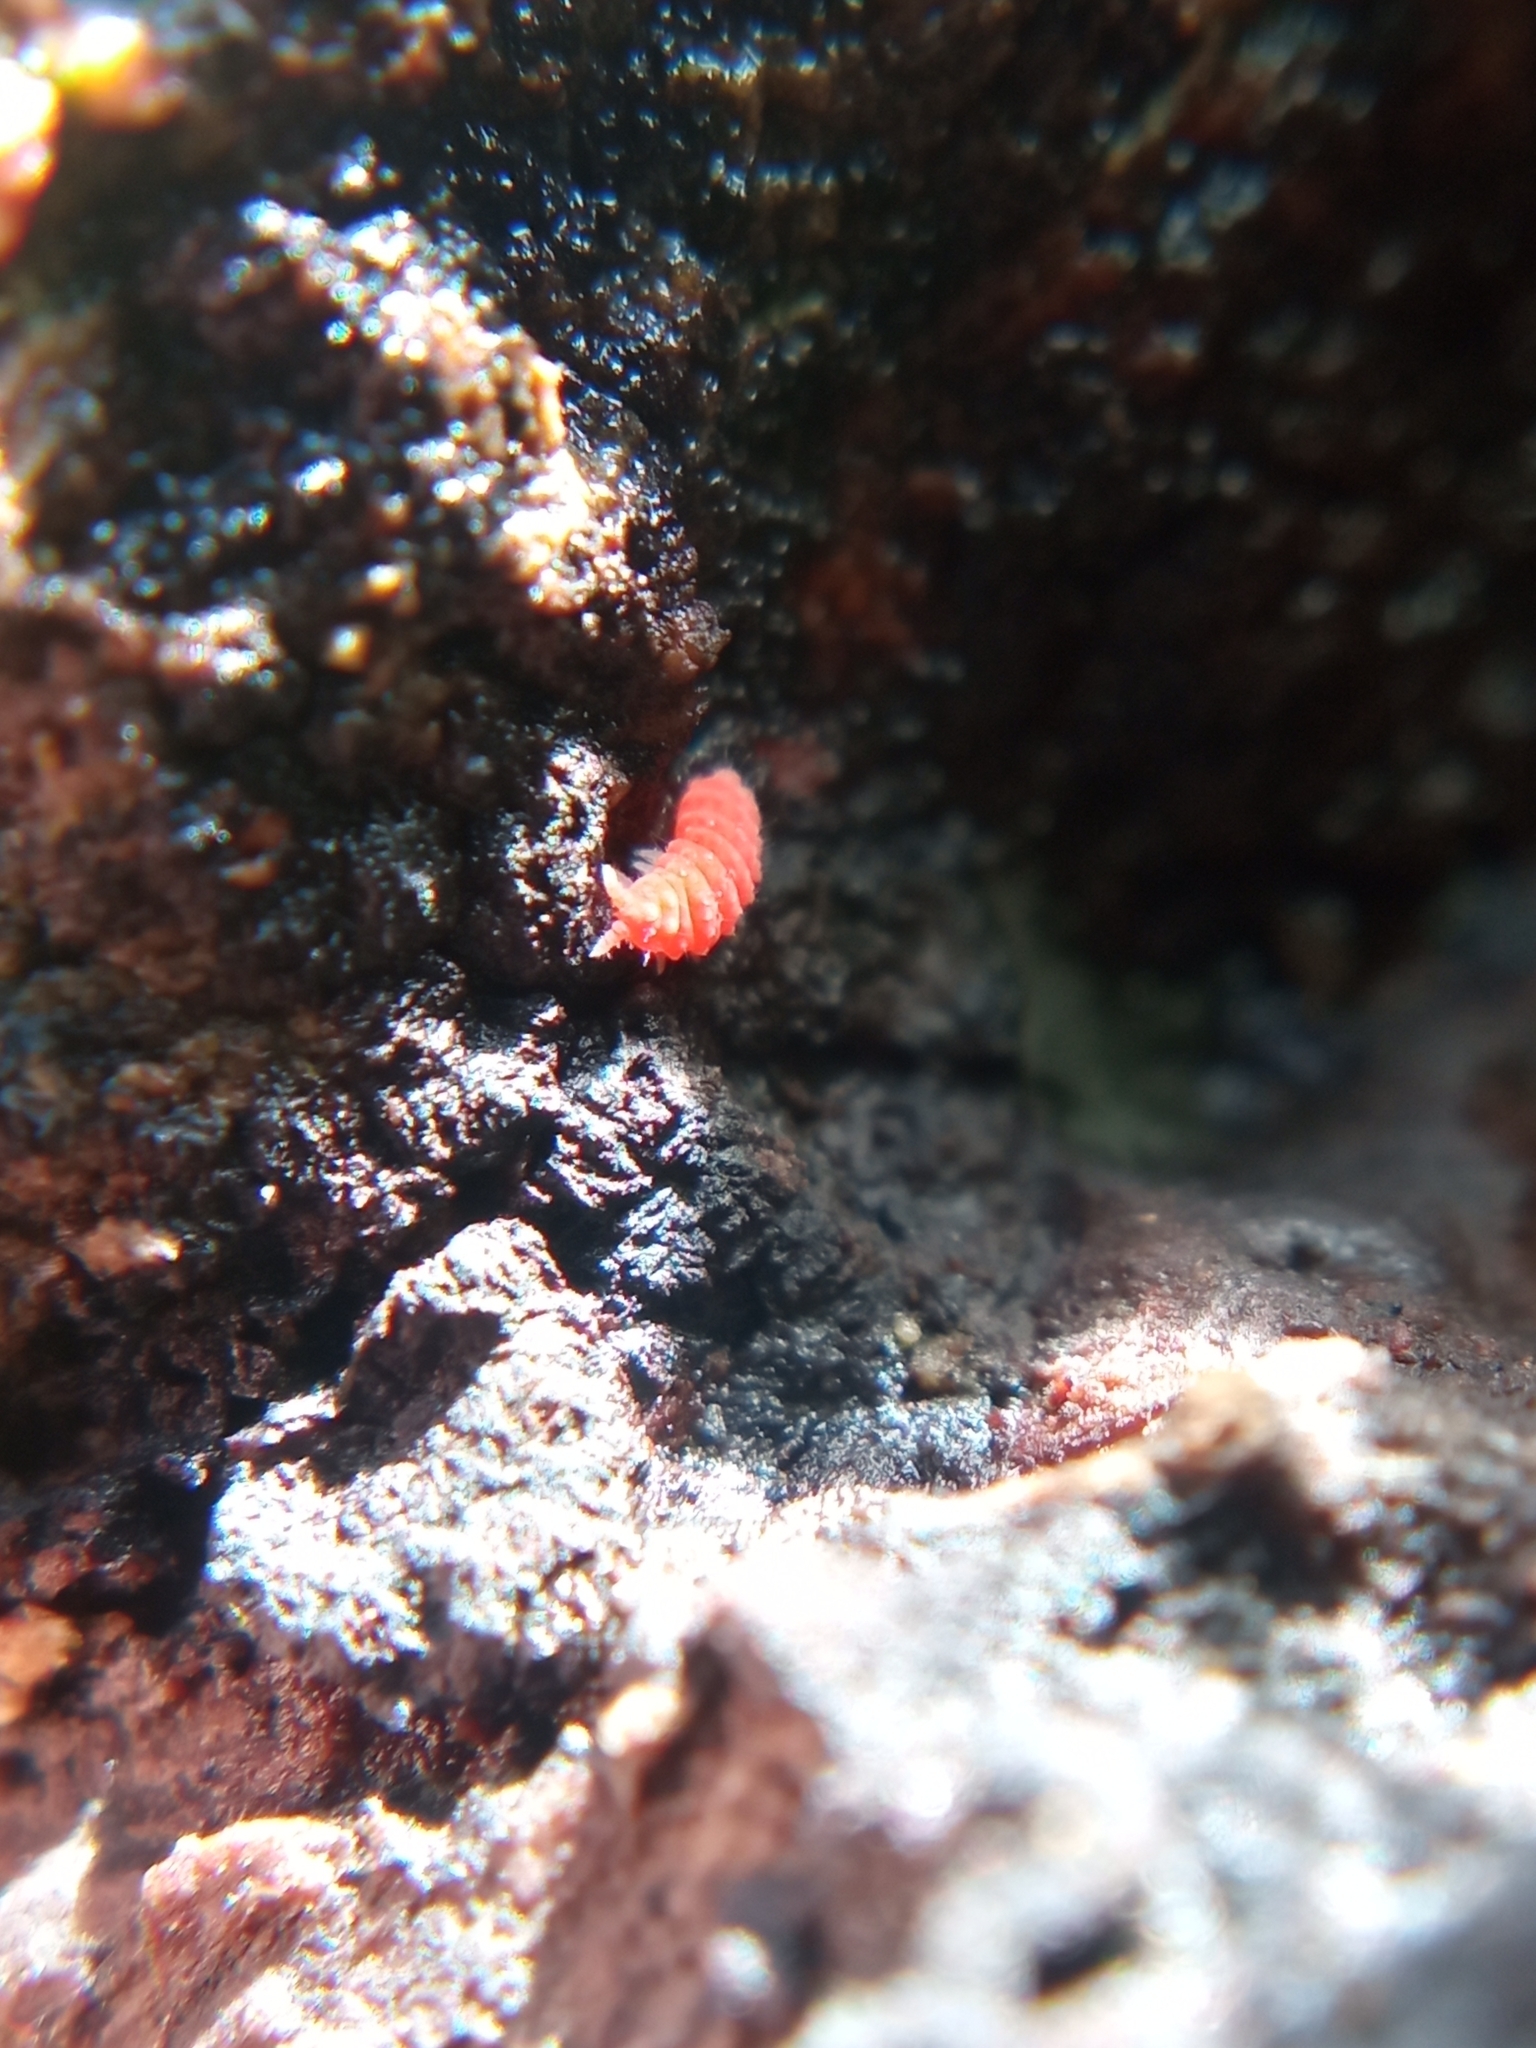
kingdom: Animalia
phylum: Arthropoda
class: Collembola
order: Poduromorpha
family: Neanuridae
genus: Bilobella
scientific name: Bilobella braunerae
